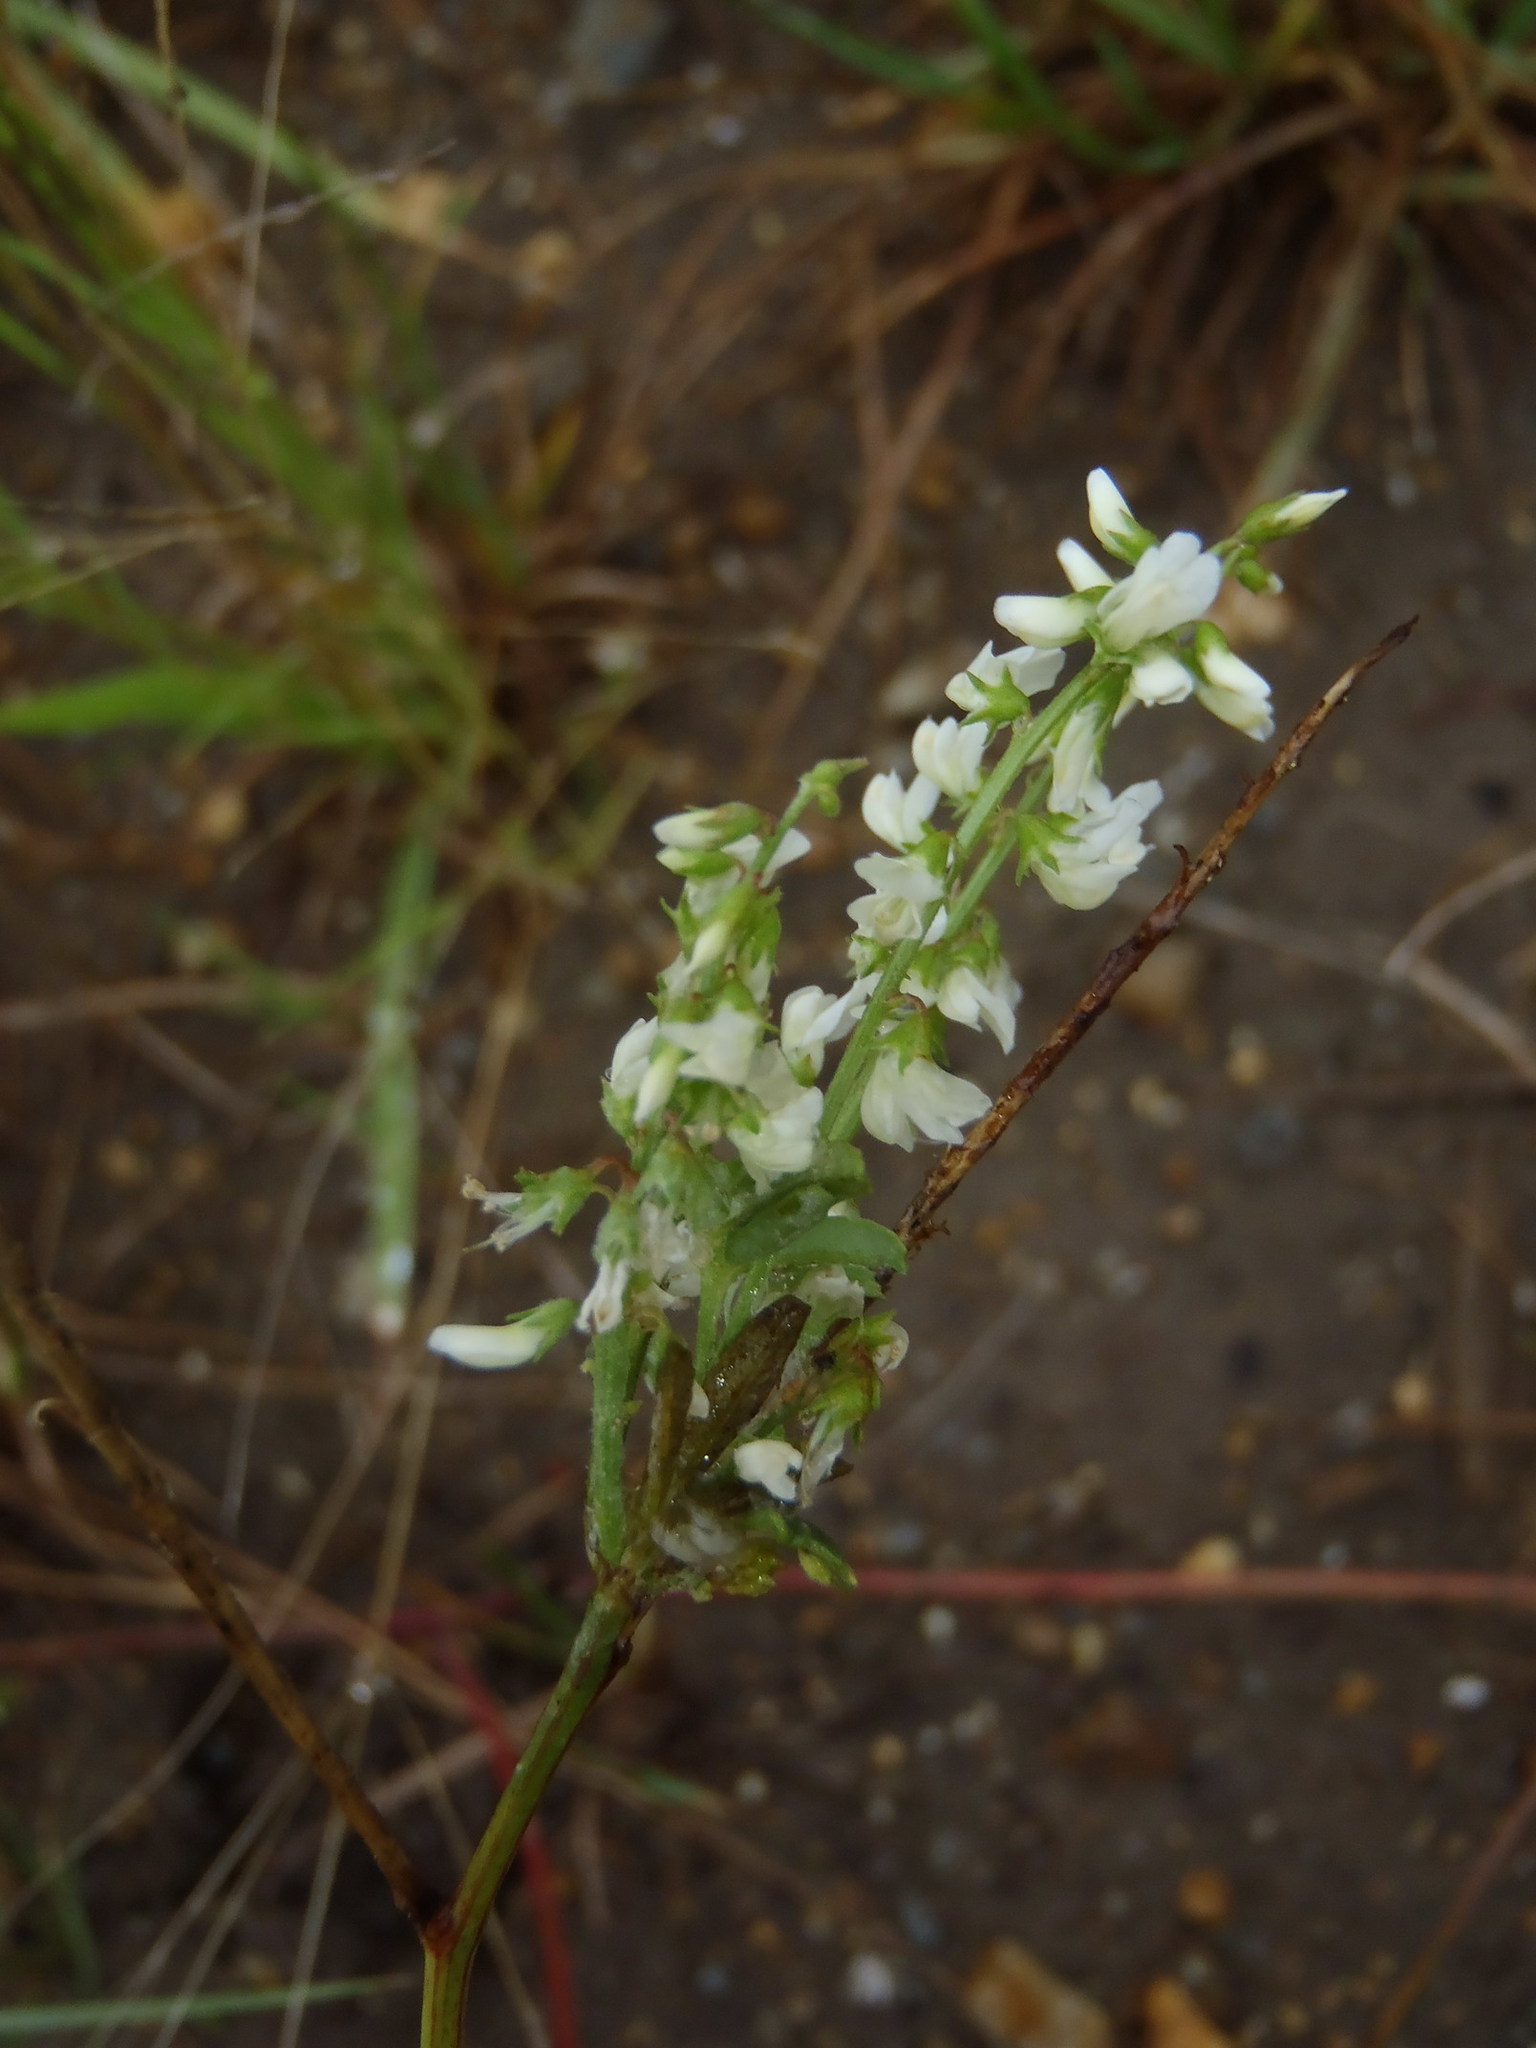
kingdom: Plantae
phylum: Tracheophyta
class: Magnoliopsida
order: Fabales
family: Fabaceae
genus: Melilotus
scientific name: Melilotus albus
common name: White melilot
